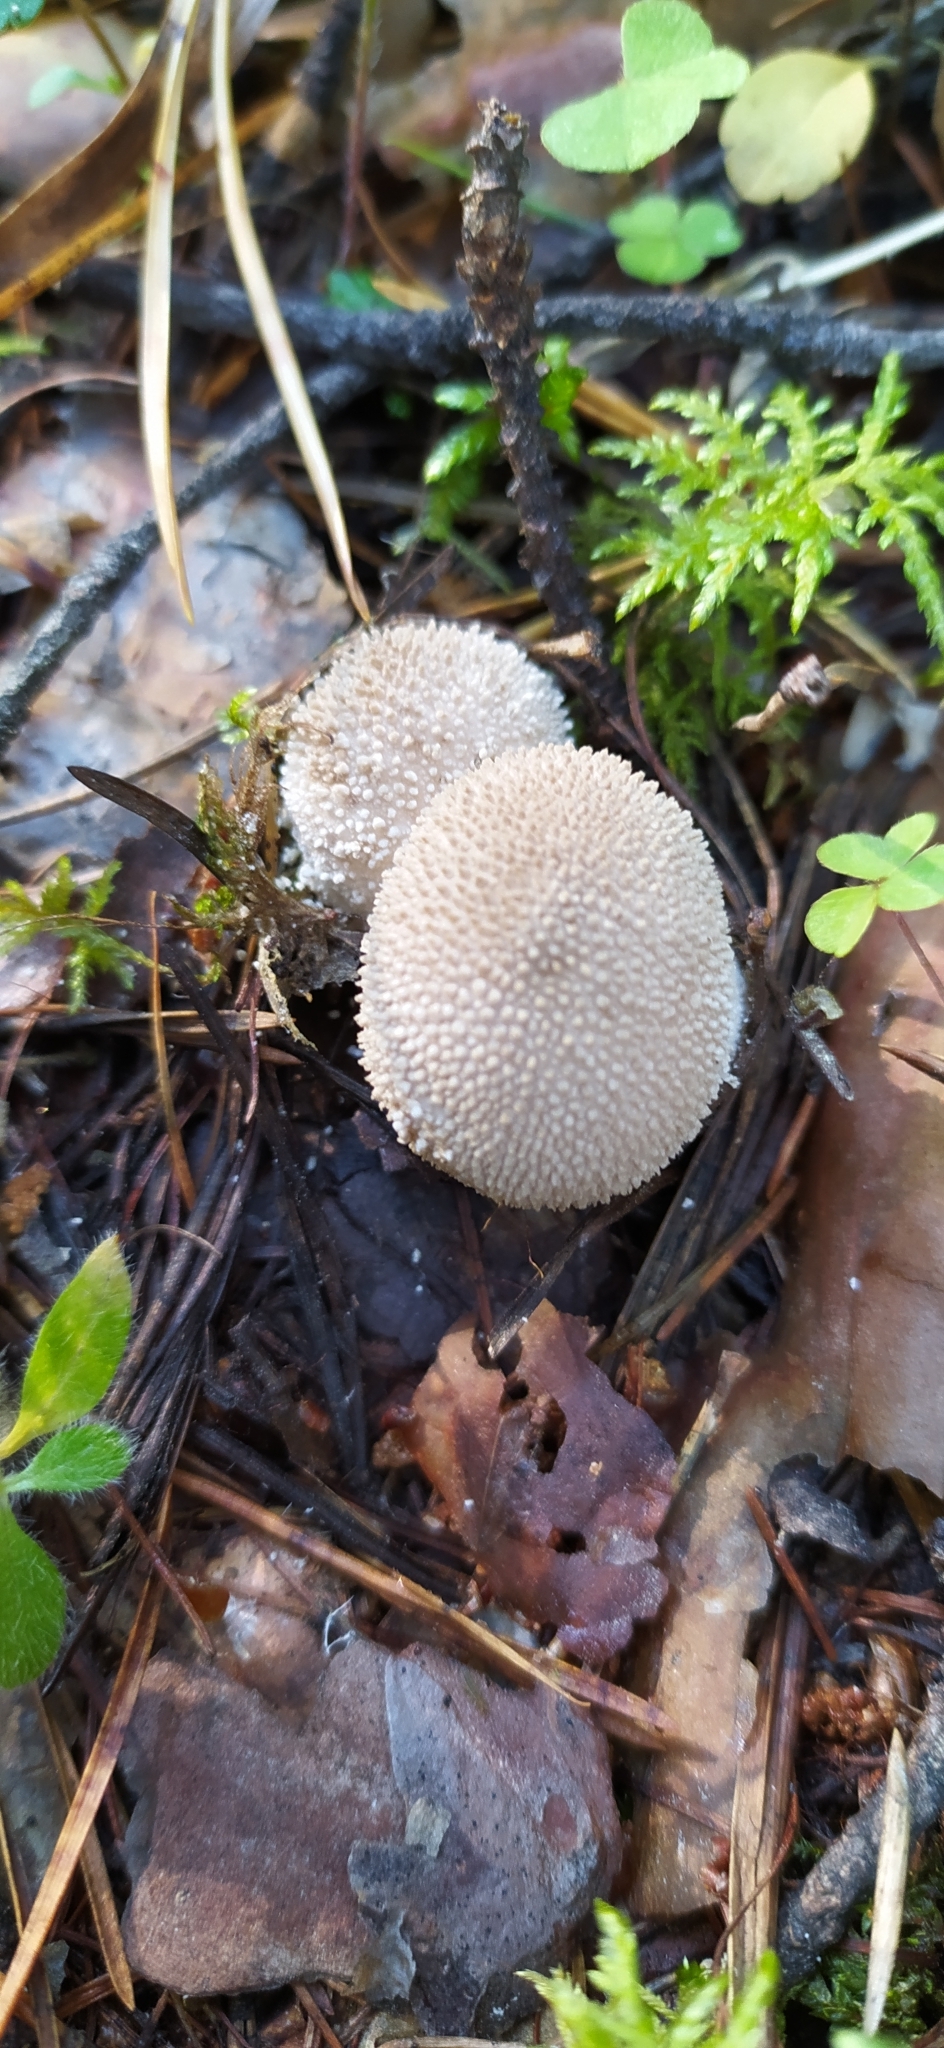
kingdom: Fungi
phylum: Basidiomycota
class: Agaricomycetes
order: Agaricales
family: Lycoperdaceae
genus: Lycoperdon
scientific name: Lycoperdon perlatum
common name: Common puffball
